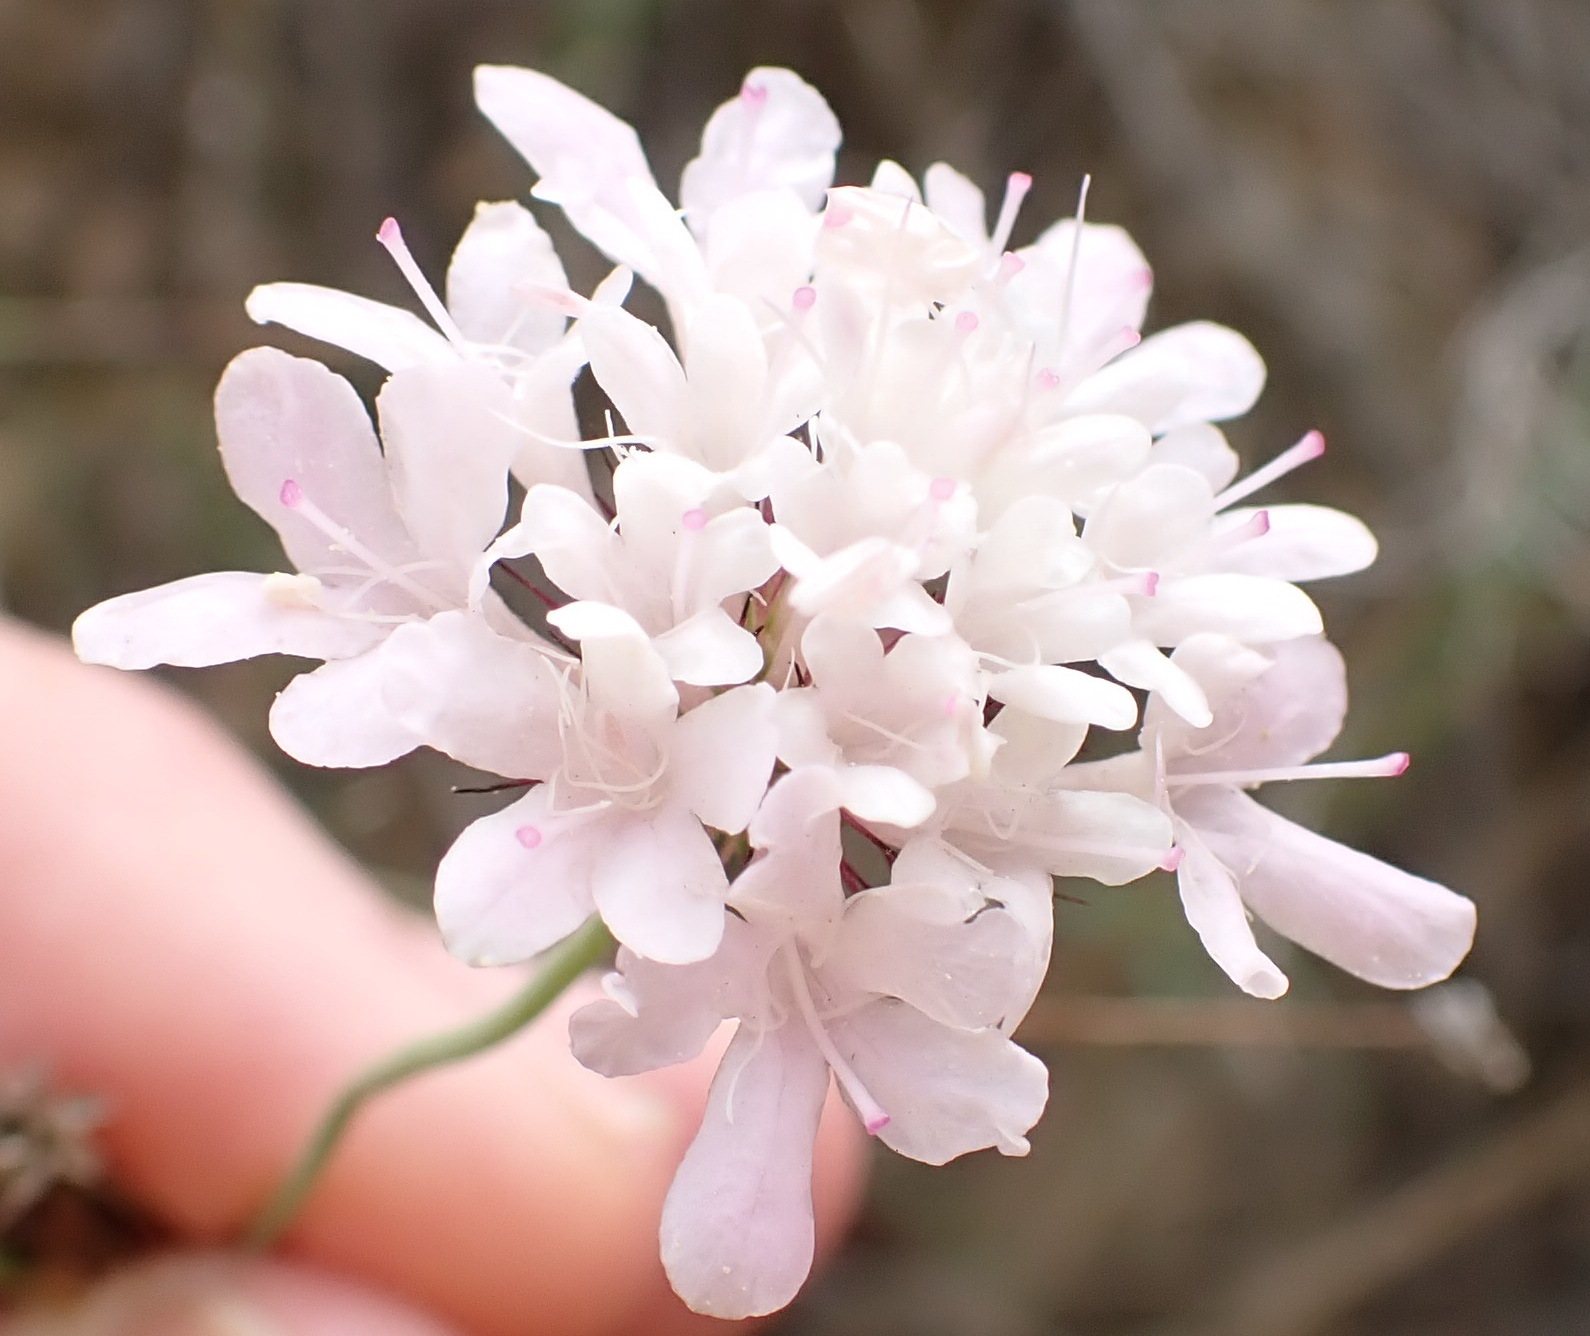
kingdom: Plantae
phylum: Tracheophyta
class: Magnoliopsida
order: Dipsacales
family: Caprifoliaceae
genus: Scabiosa
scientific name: Scabiosa columbaria
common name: Small scabious
